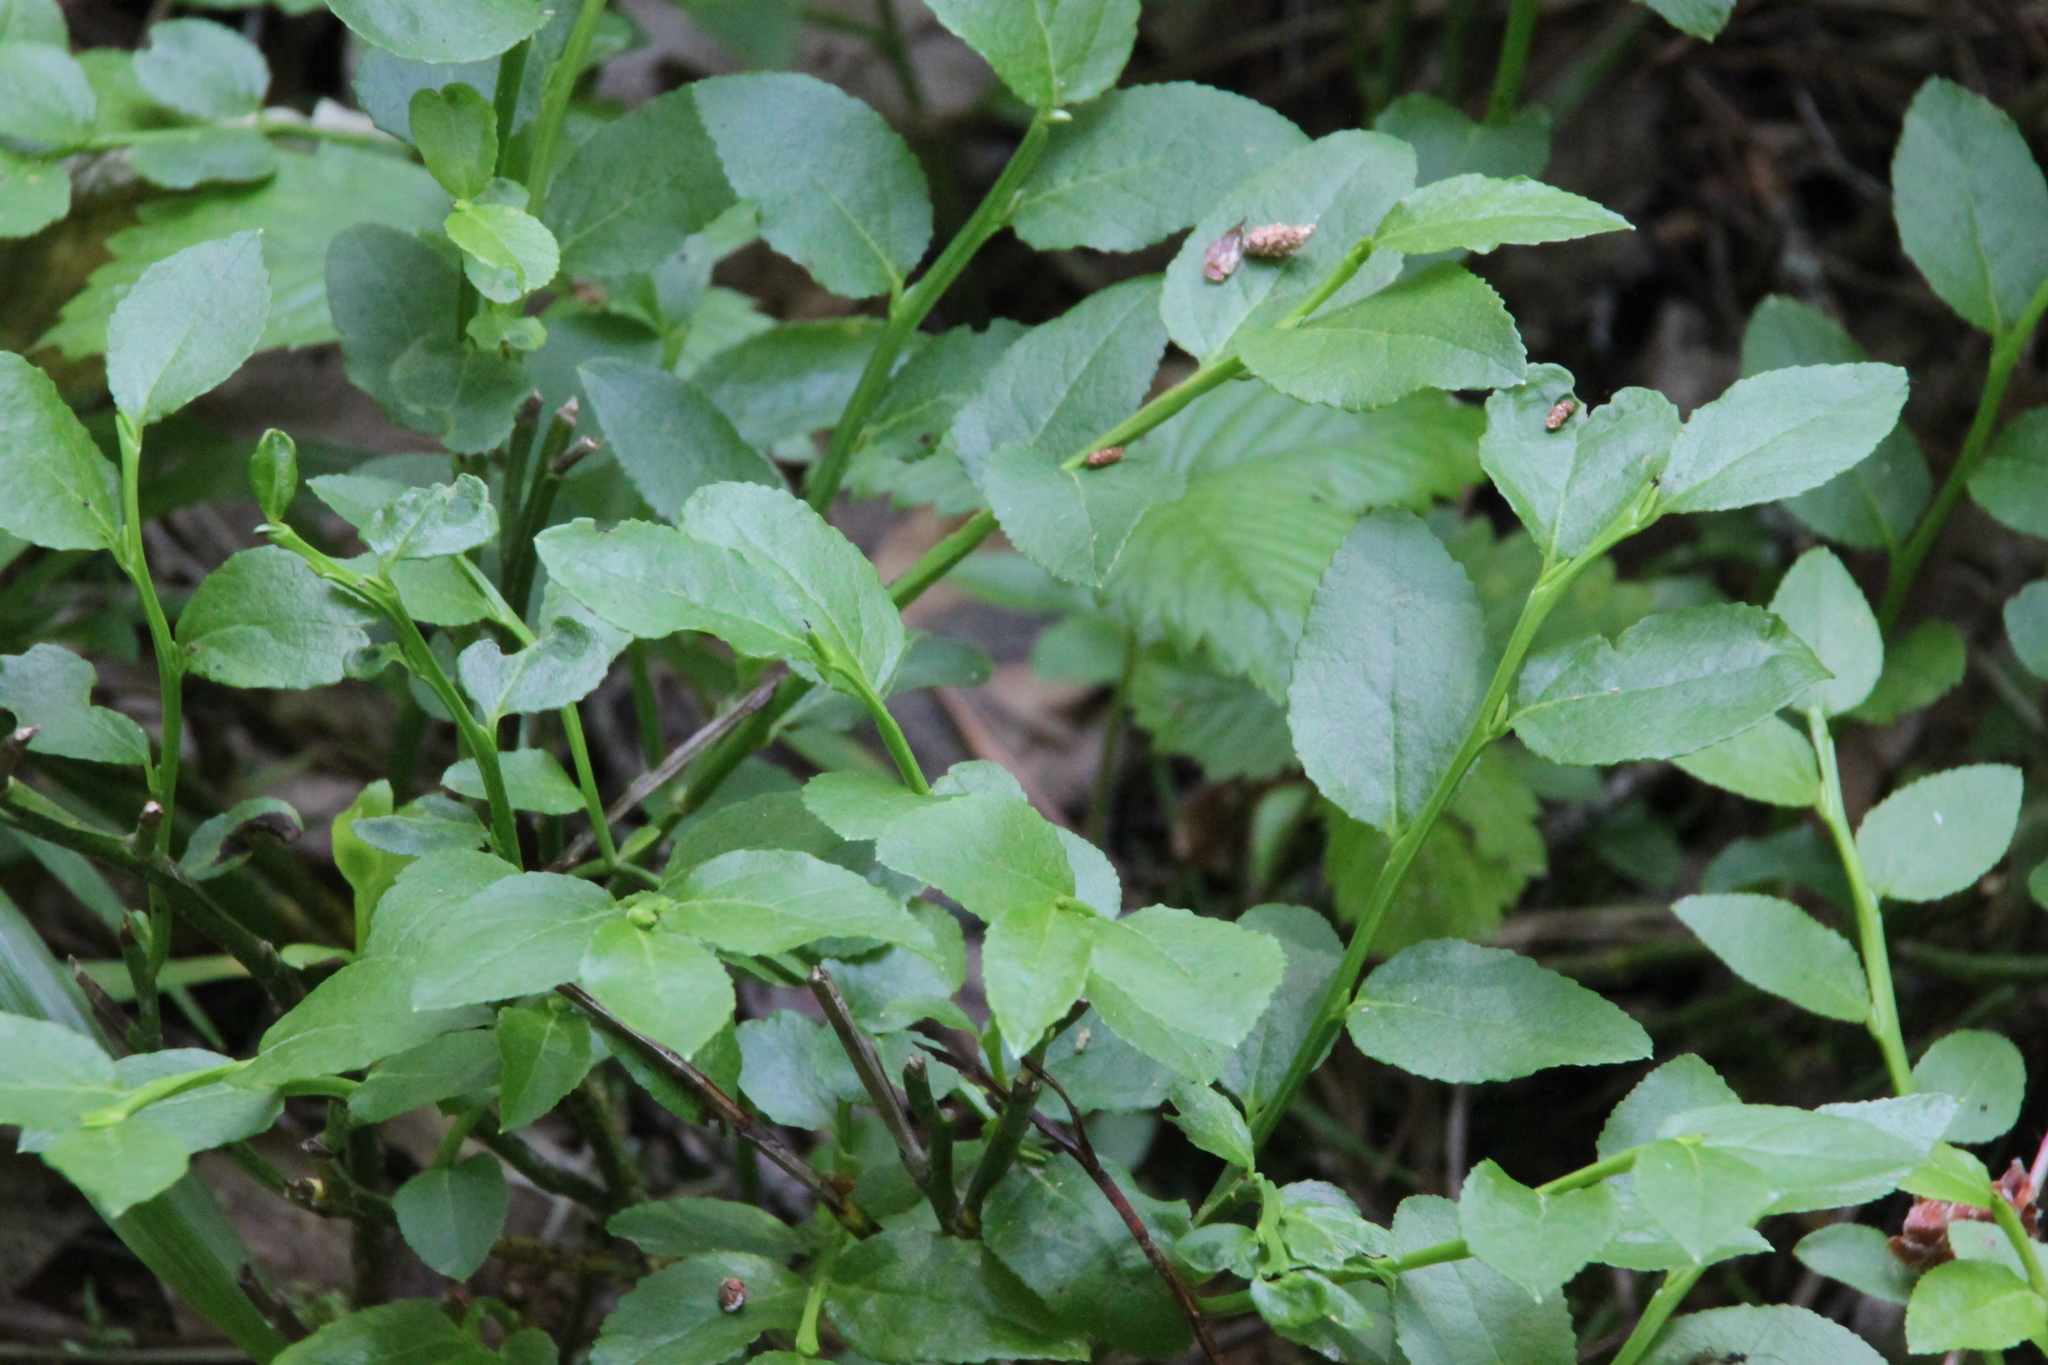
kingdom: Plantae
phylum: Tracheophyta
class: Magnoliopsida
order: Ericales
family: Ericaceae
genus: Vaccinium
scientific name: Vaccinium myrtillus
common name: Bilberry
